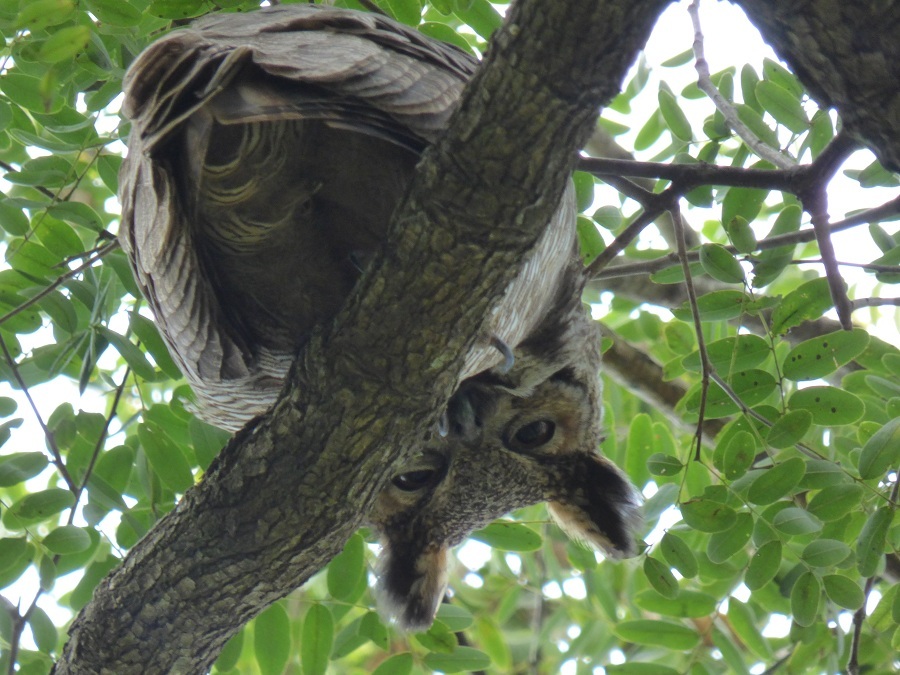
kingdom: Animalia
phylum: Chordata
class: Aves
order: Strigiformes
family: Strigidae
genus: Bubo
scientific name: Bubo virginianus
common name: Great horned owl
